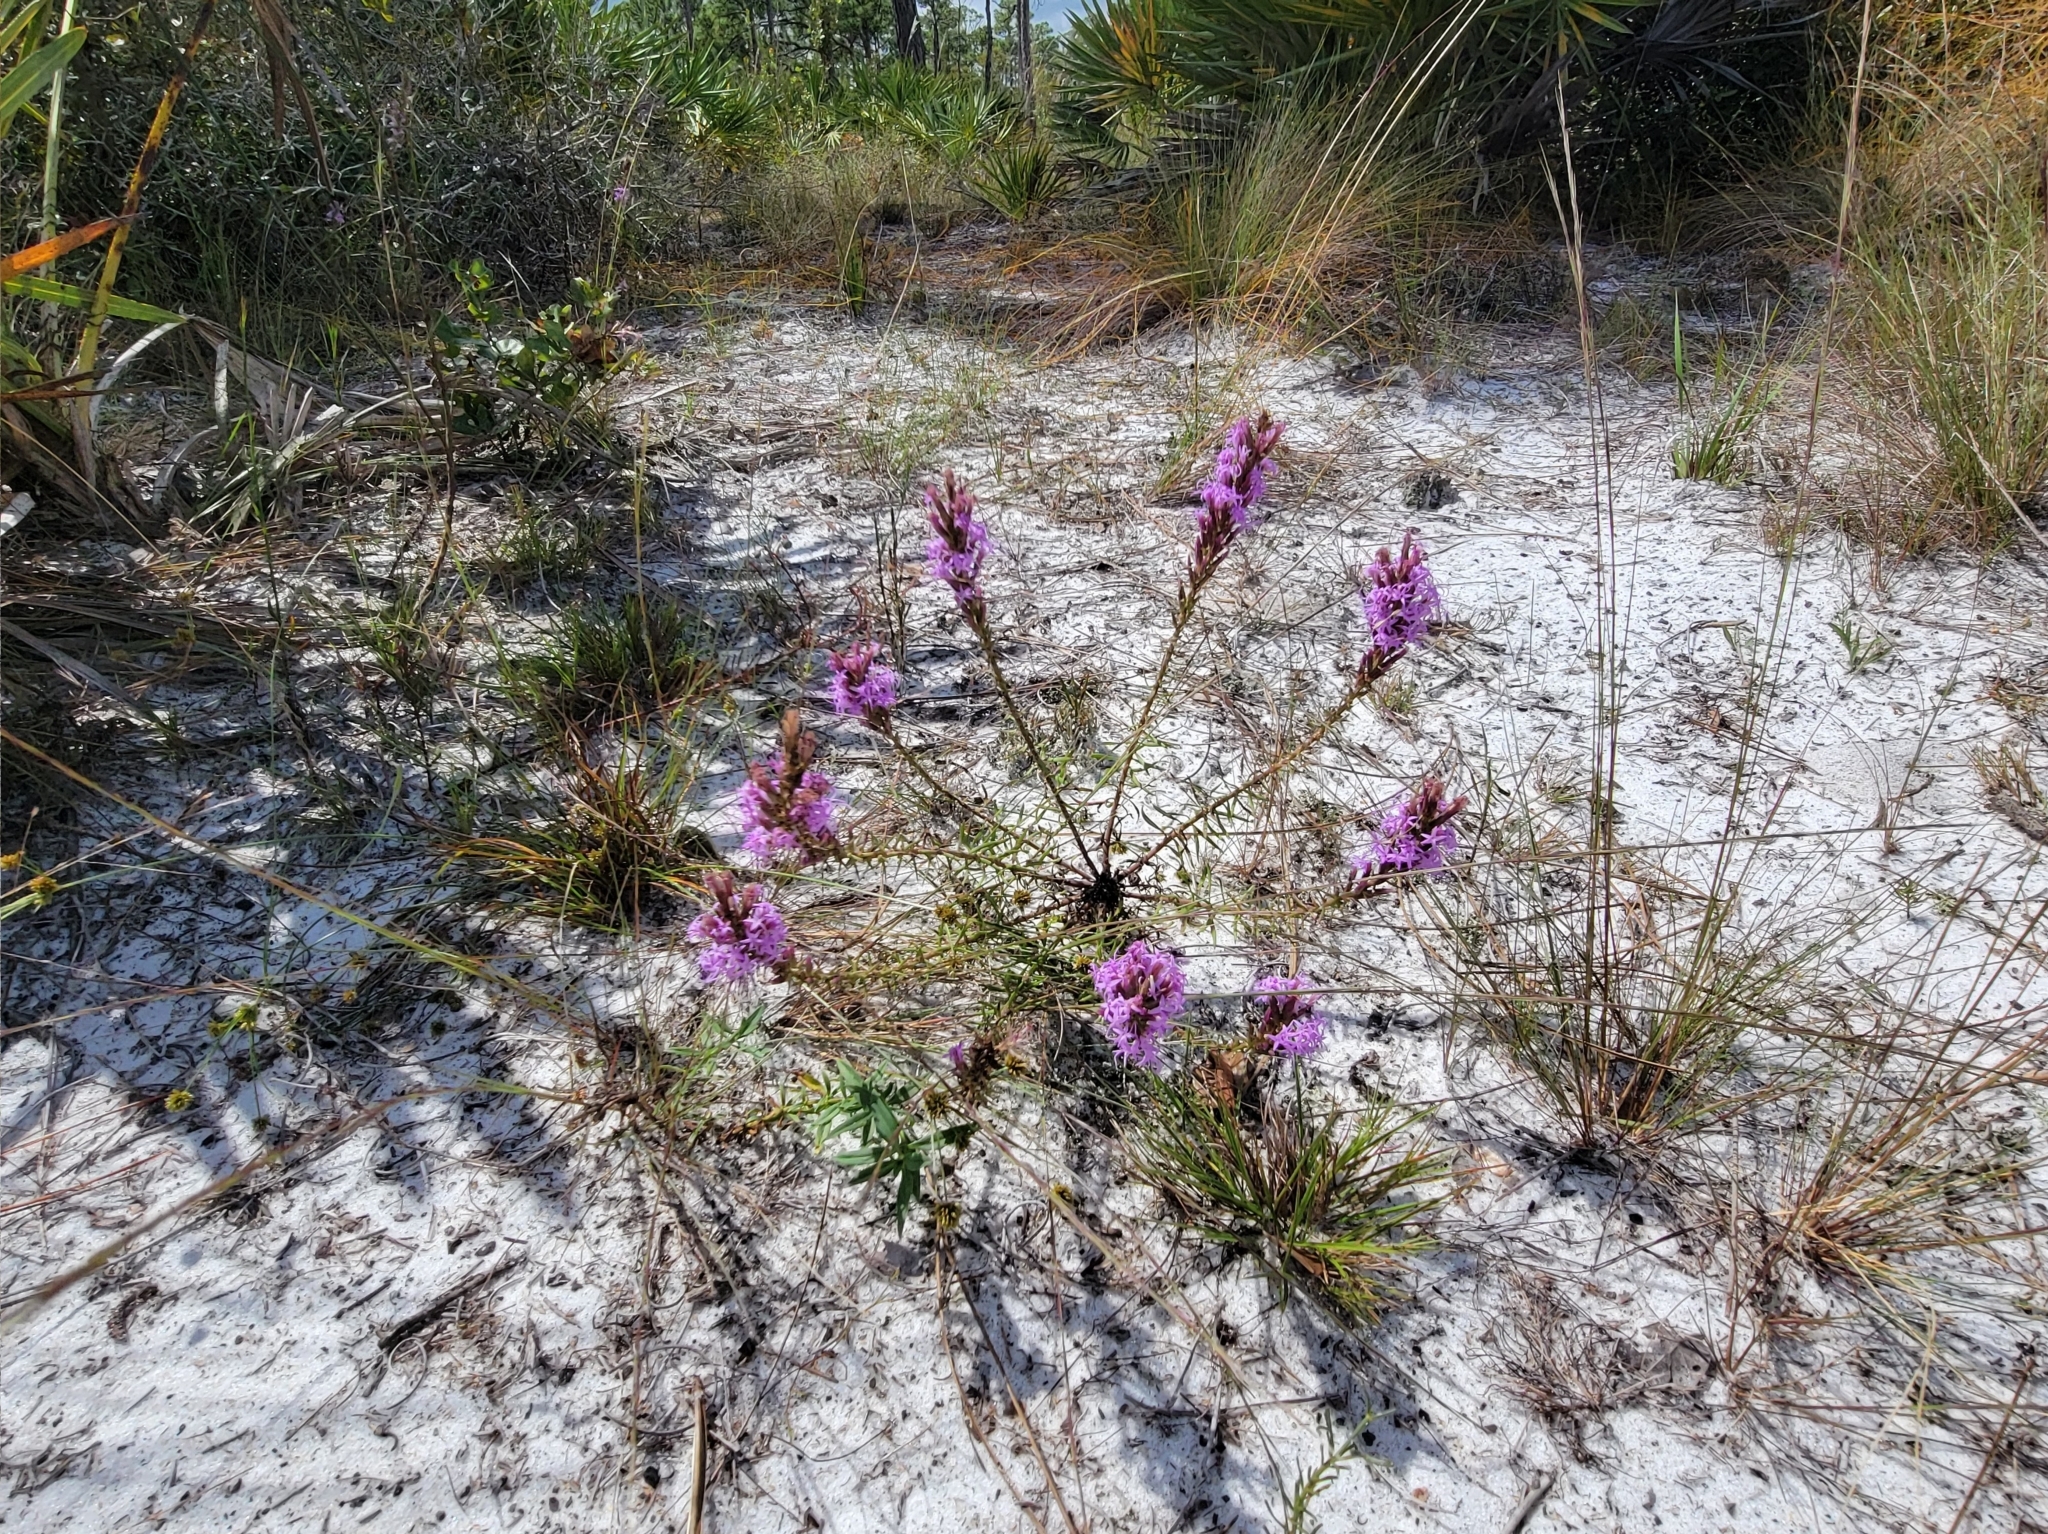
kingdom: Plantae
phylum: Tracheophyta
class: Magnoliopsida
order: Asterales
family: Asteraceae
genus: Liatris
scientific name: Liatris chapmanii
